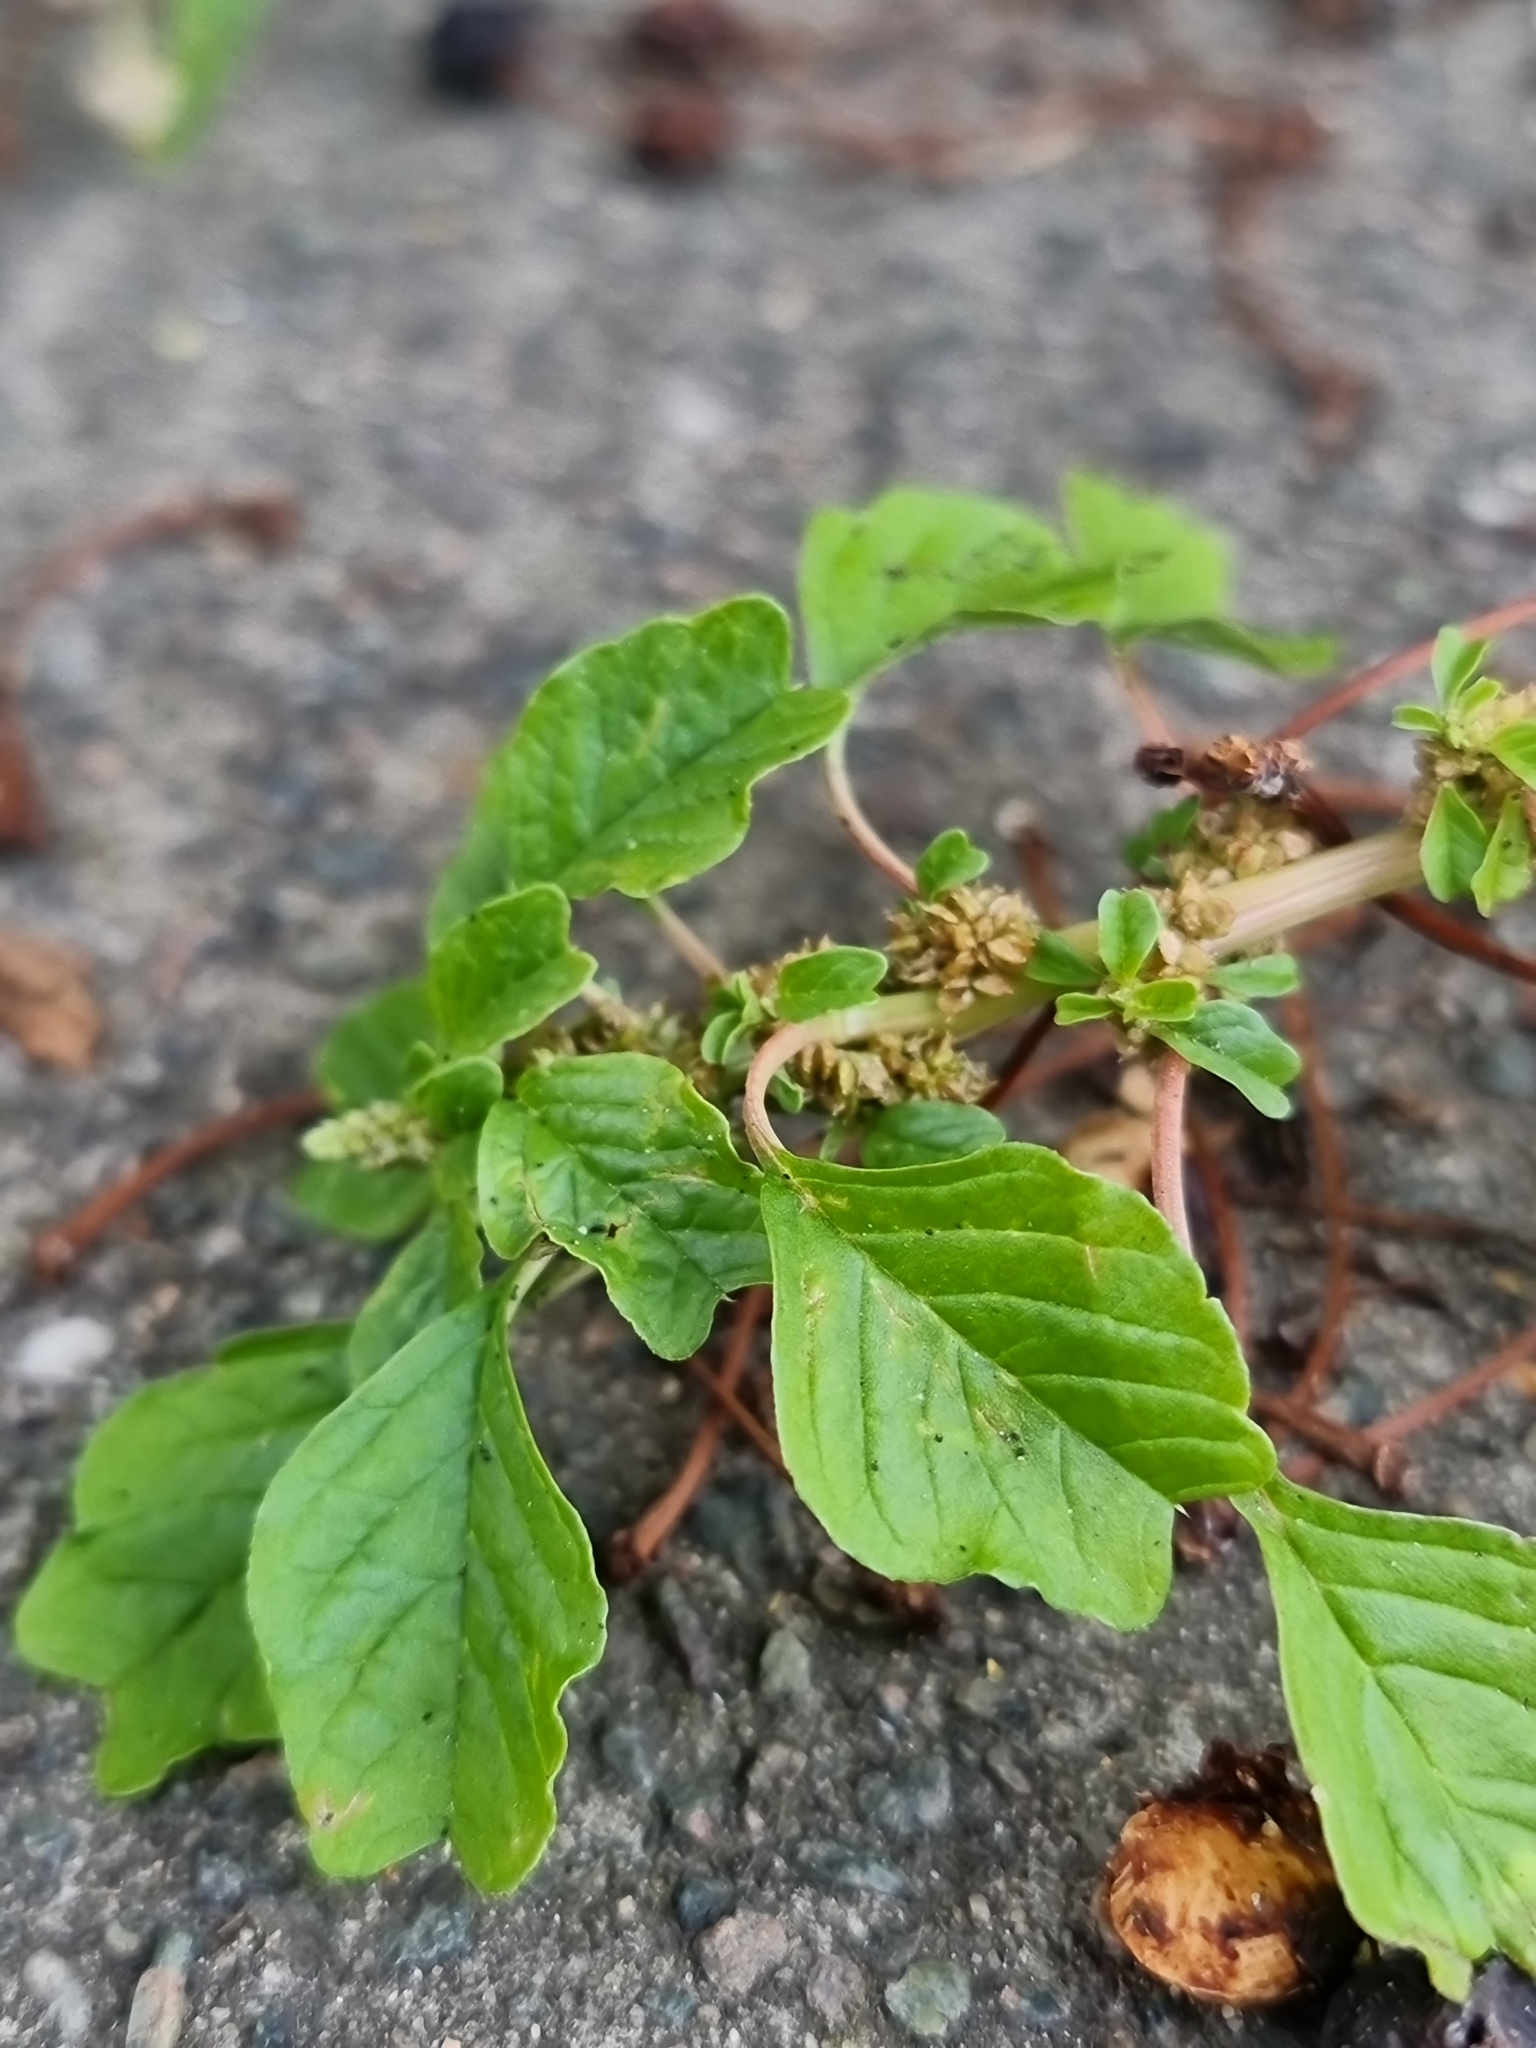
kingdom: Plantae
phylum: Tracheophyta
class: Magnoliopsida
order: Caryophyllales
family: Amaranthaceae
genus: Amaranthus
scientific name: Amaranthus blitum
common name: Purple amaranth
